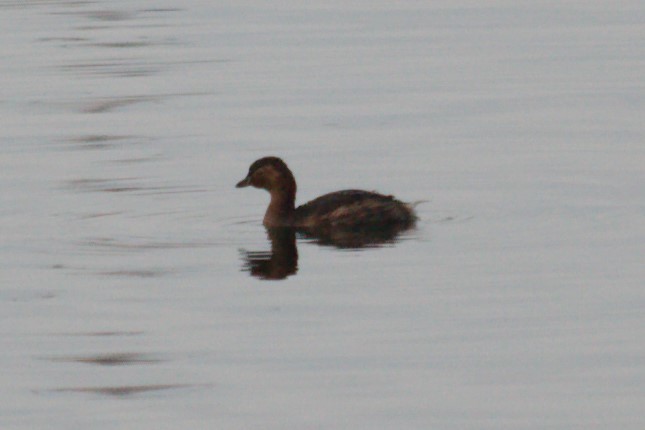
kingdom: Animalia
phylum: Chordata
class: Aves
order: Podicipediformes
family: Podicipedidae
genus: Tachybaptus
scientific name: Tachybaptus ruficollis
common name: Little grebe
